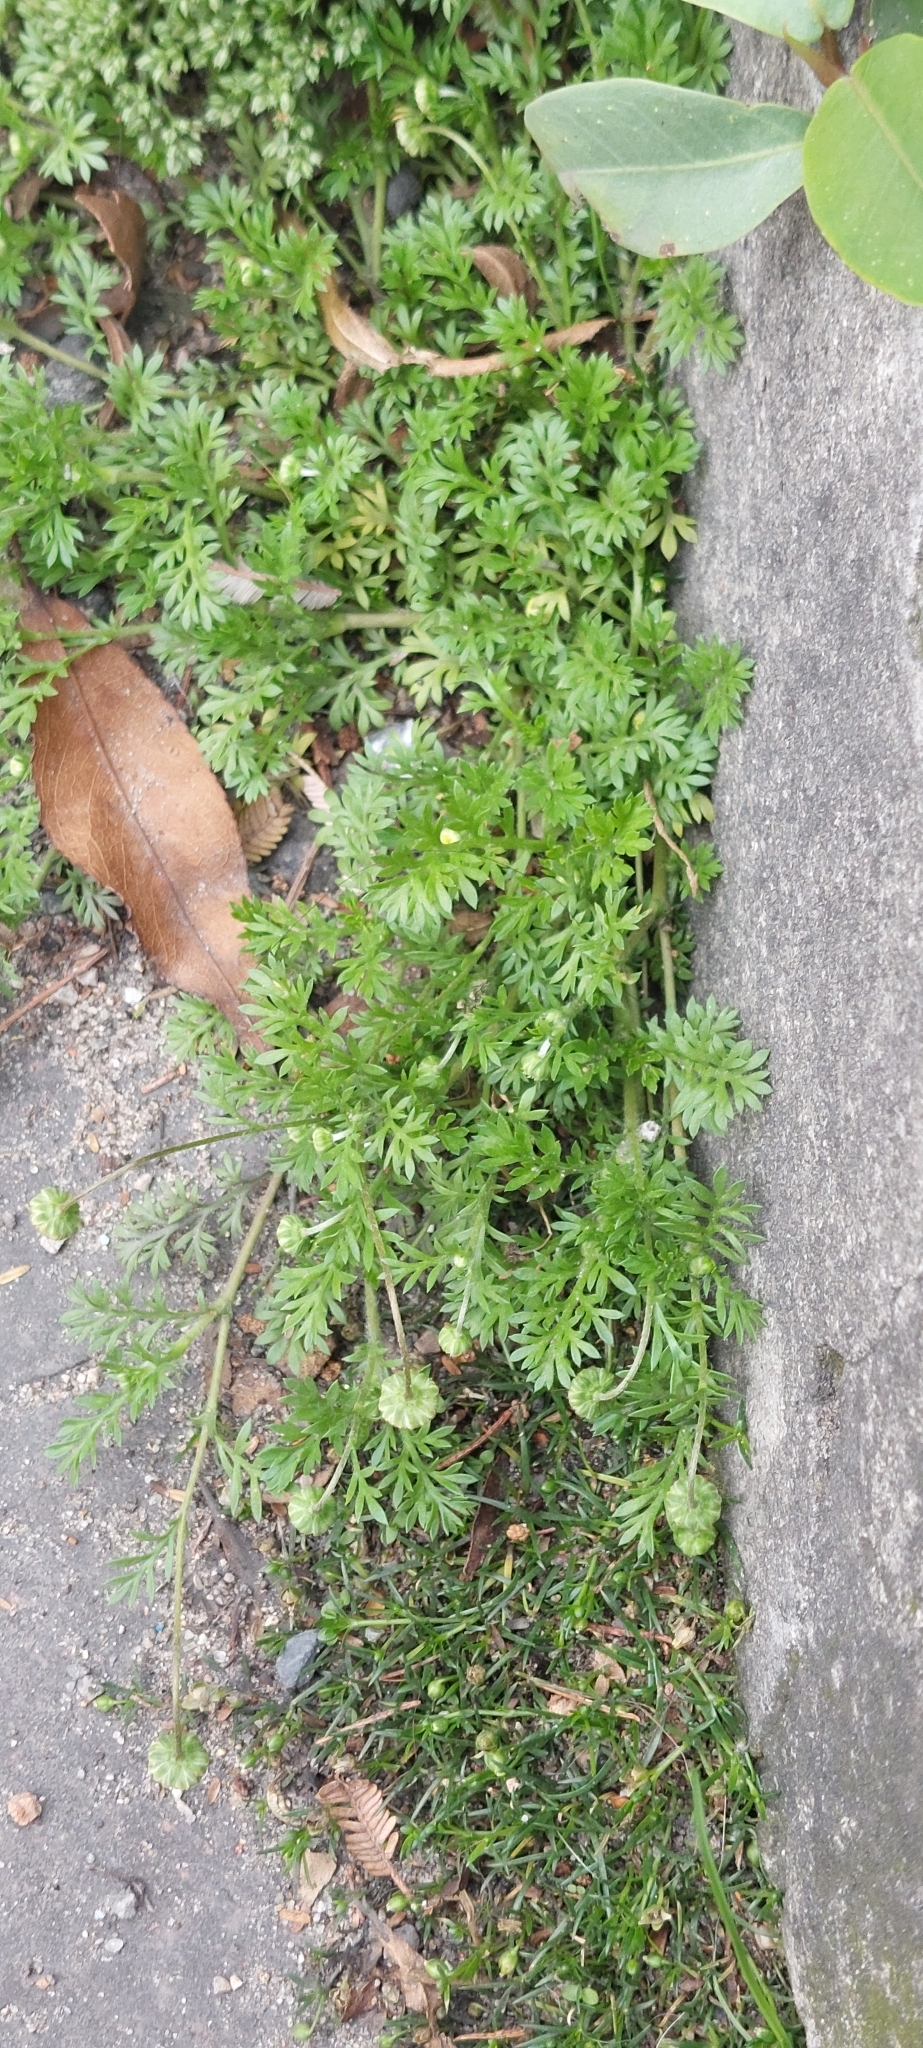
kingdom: Plantae
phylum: Tracheophyta
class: Magnoliopsida
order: Asterales
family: Asteraceae
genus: Cotula
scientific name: Cotula australis
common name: Australian waterbuttons
